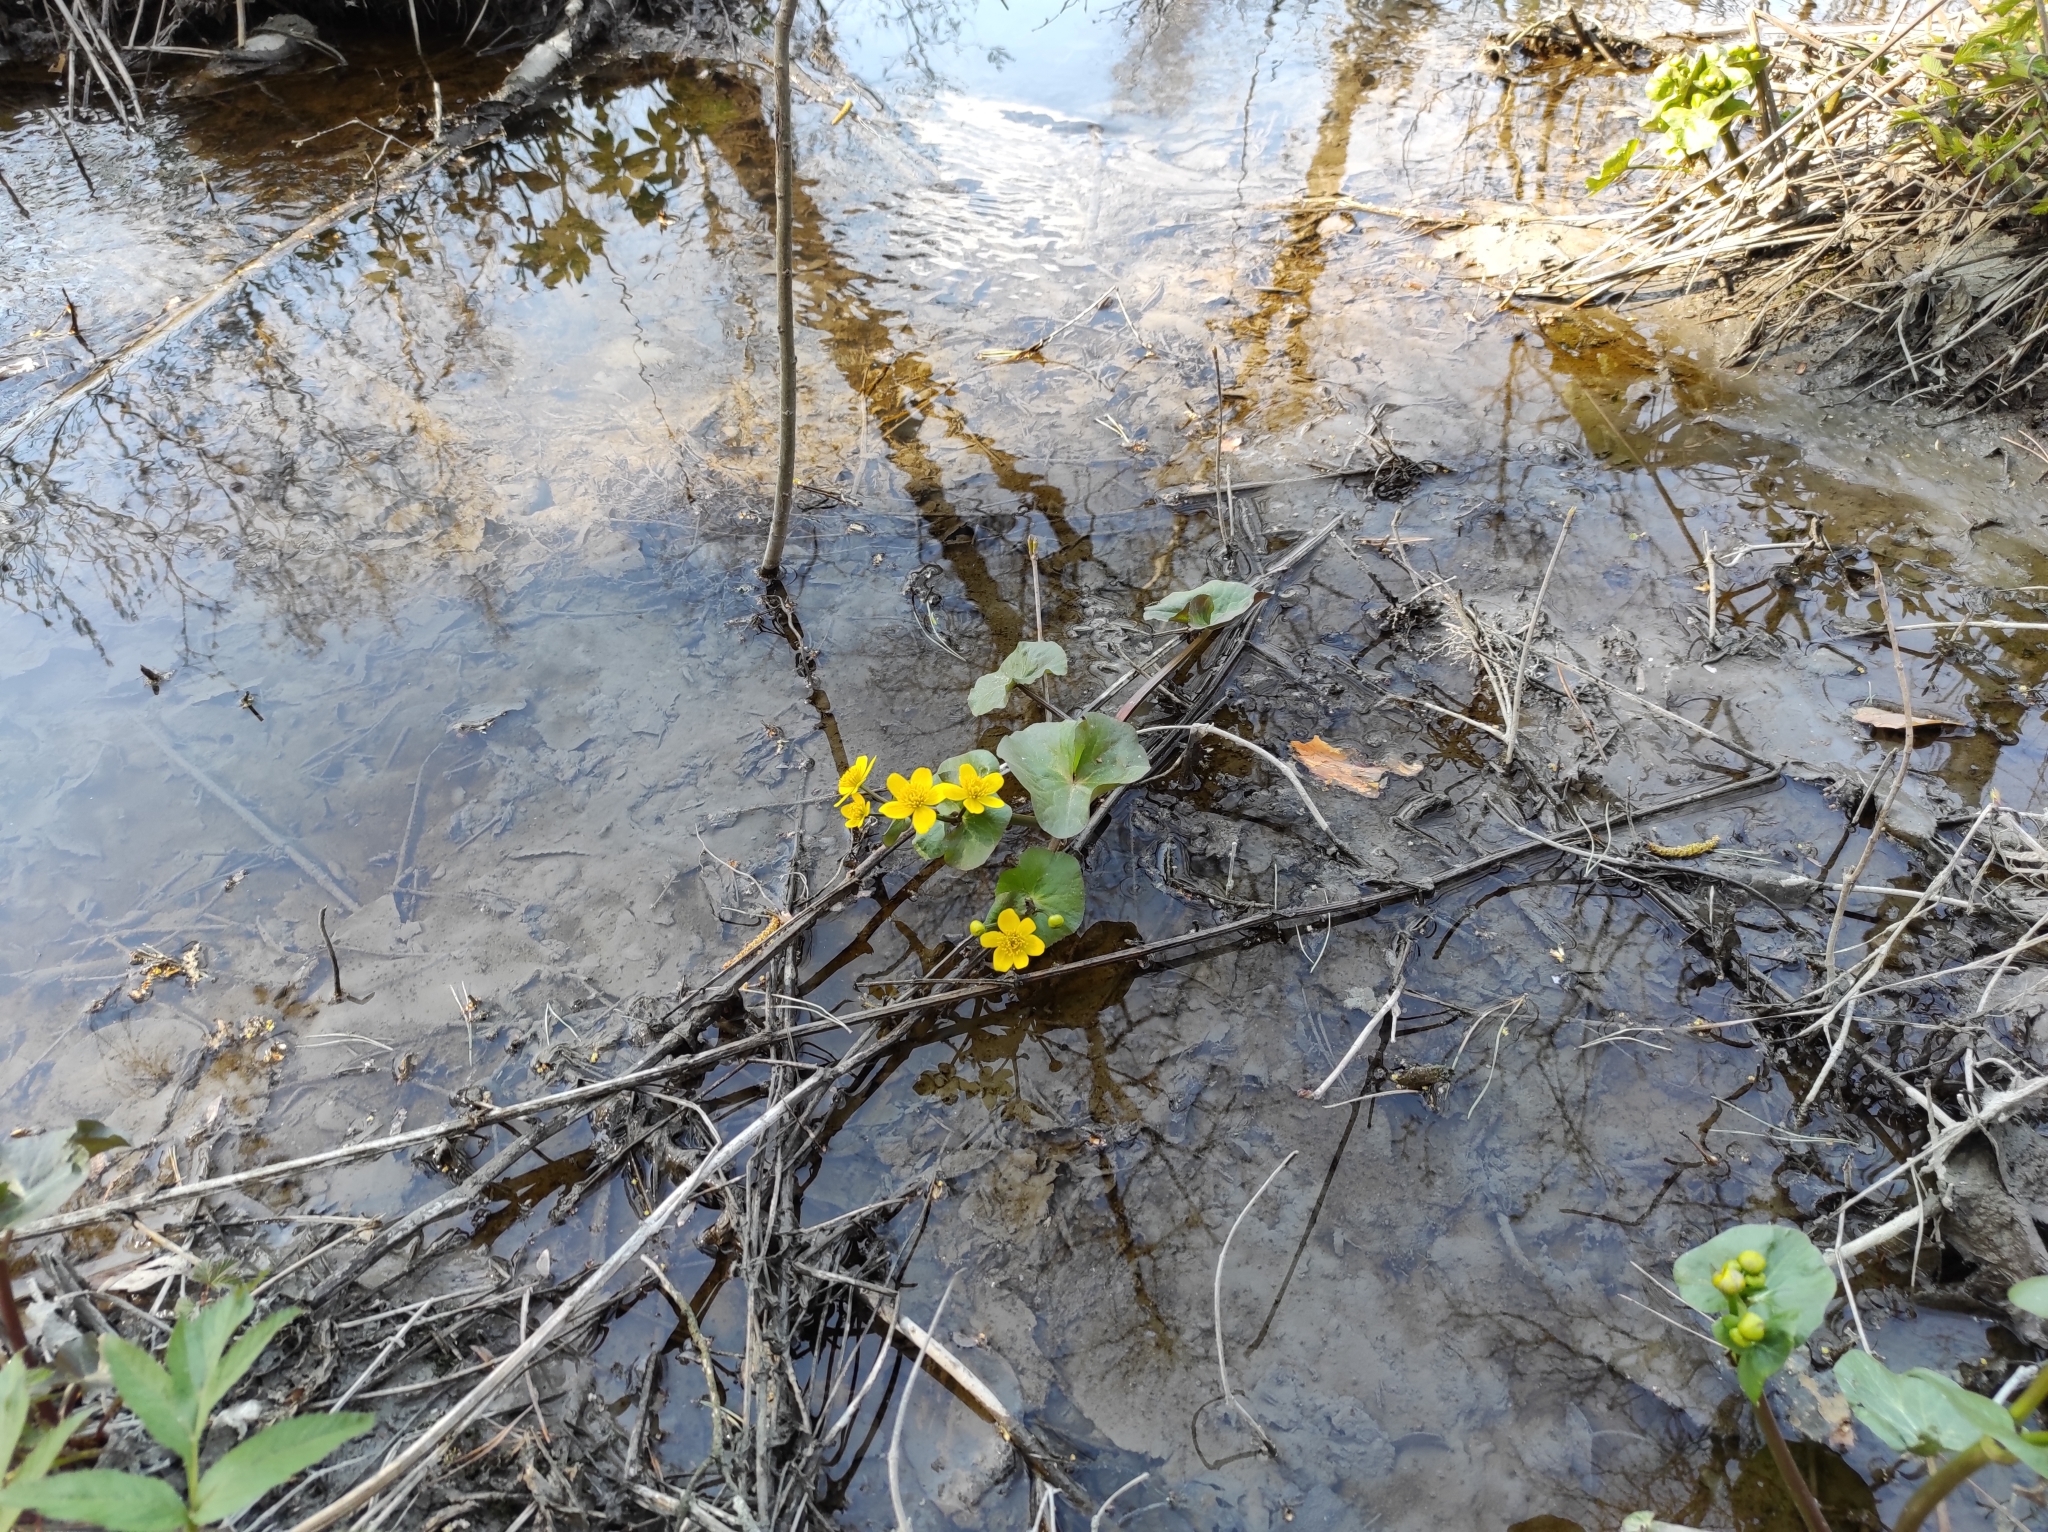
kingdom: Plantae
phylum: Tracheophyta
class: Magnoliopsida
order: Ranunculales
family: Ranunculaceae
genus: Caltha
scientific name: Caltha palustris
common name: Marsh marigold
